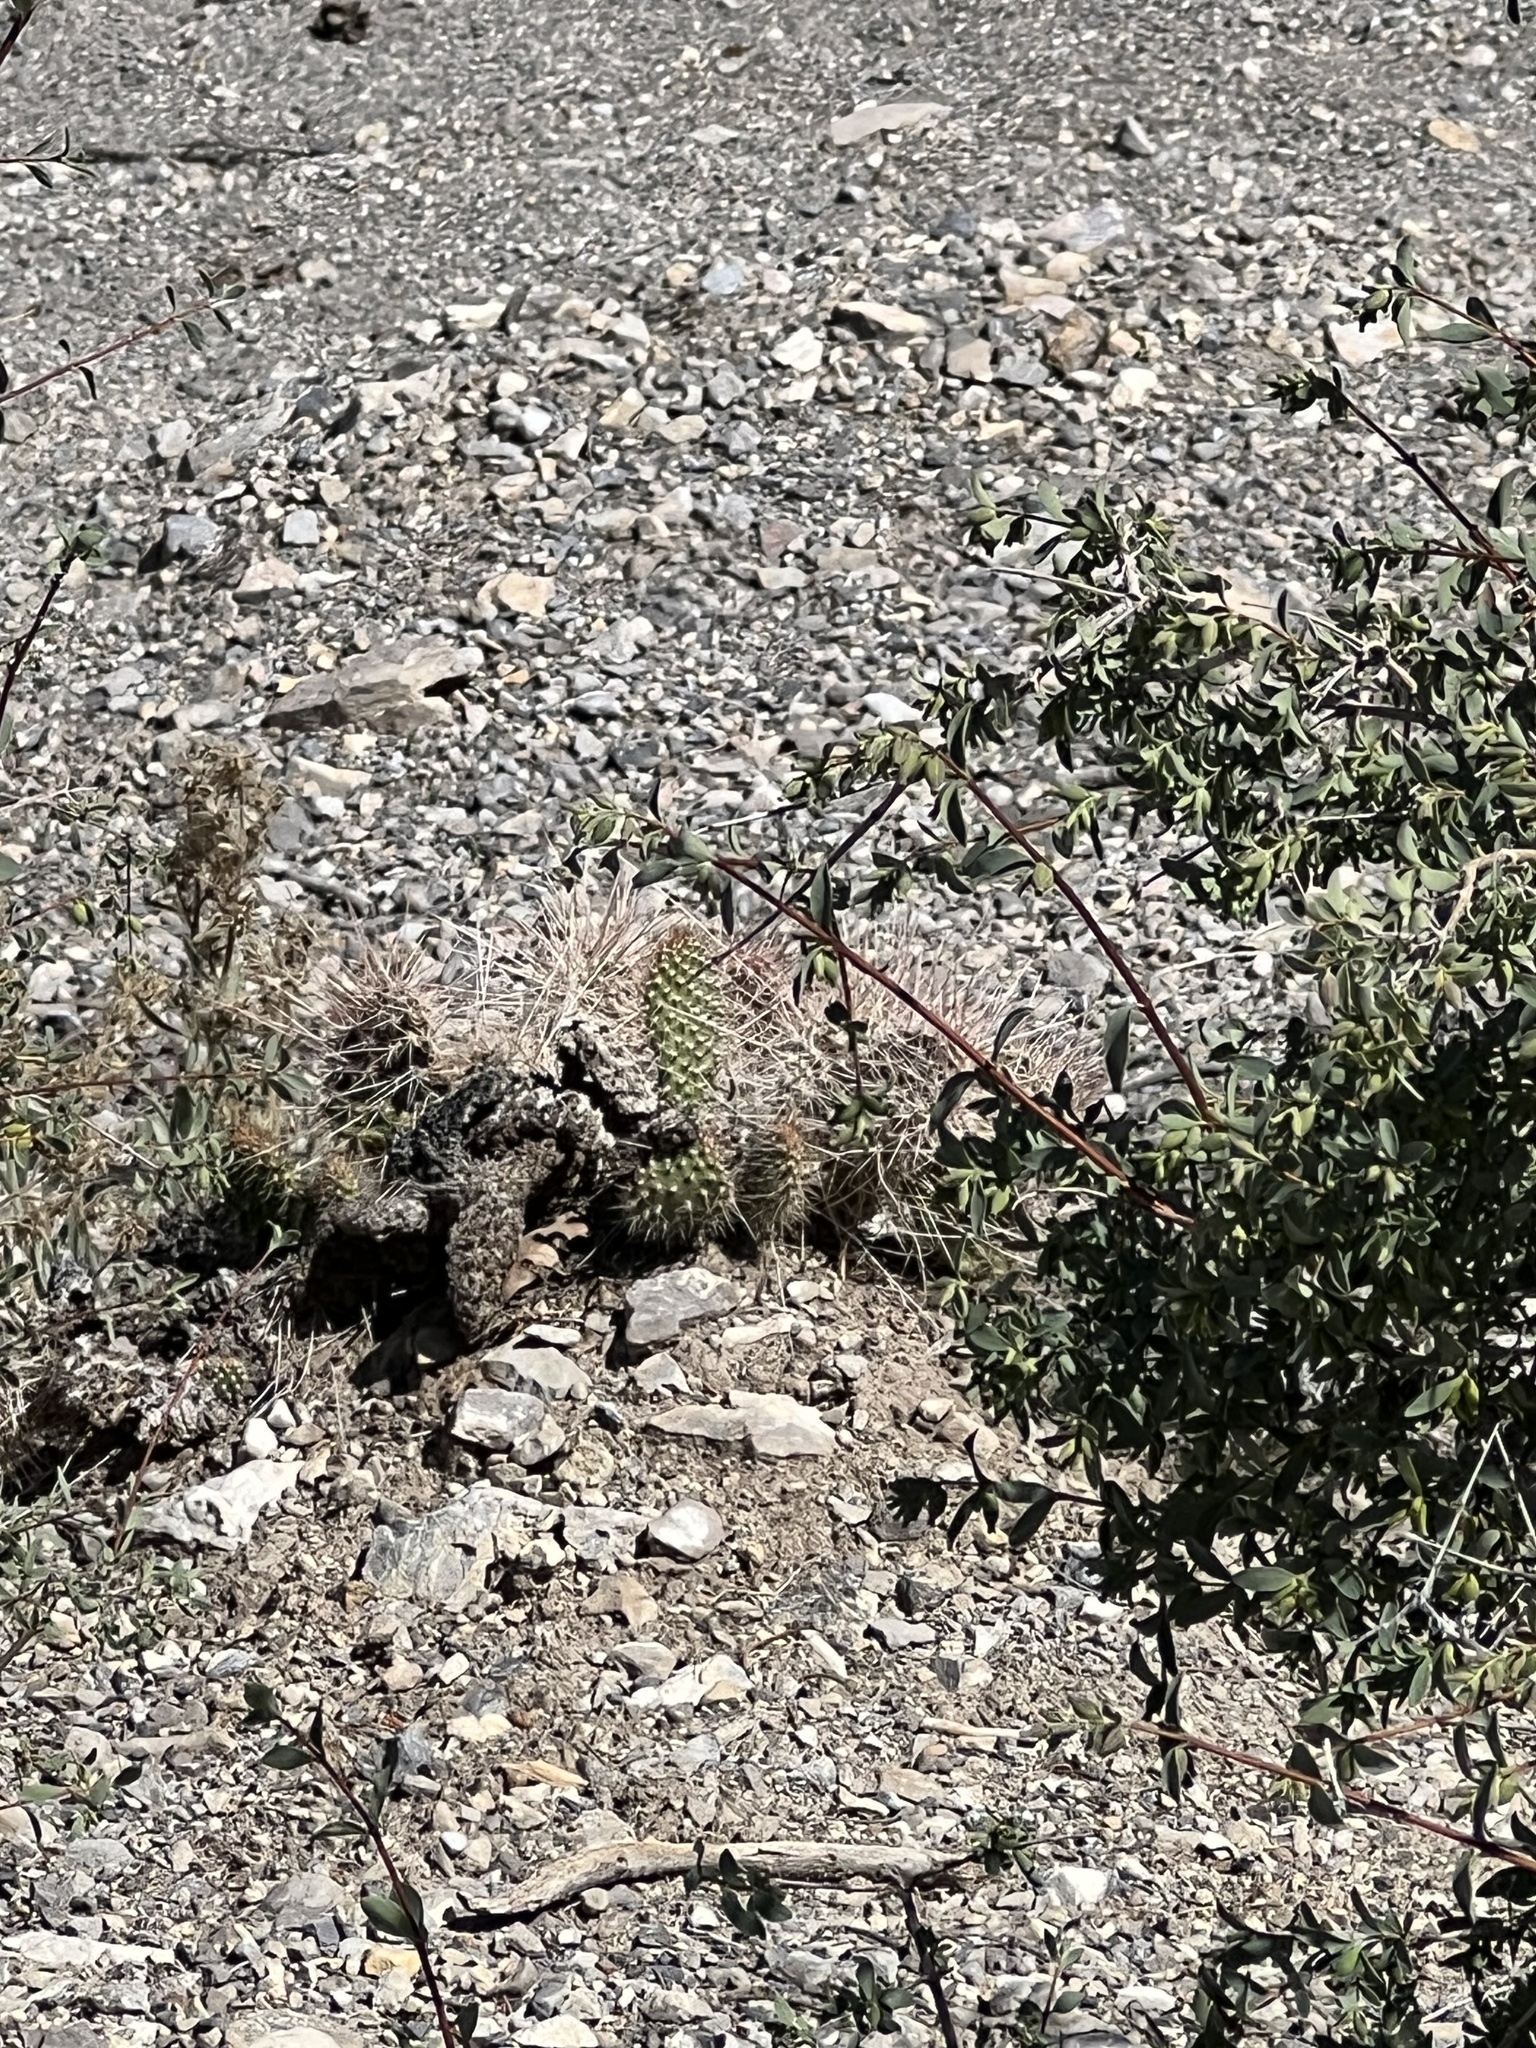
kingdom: Plantae
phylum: Tracheophyta
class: Magnoliopsida
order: Caryophyllales
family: Cactaceae
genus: Opuntia
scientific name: Opuntia polyacantha
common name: Plains prickly-pear
